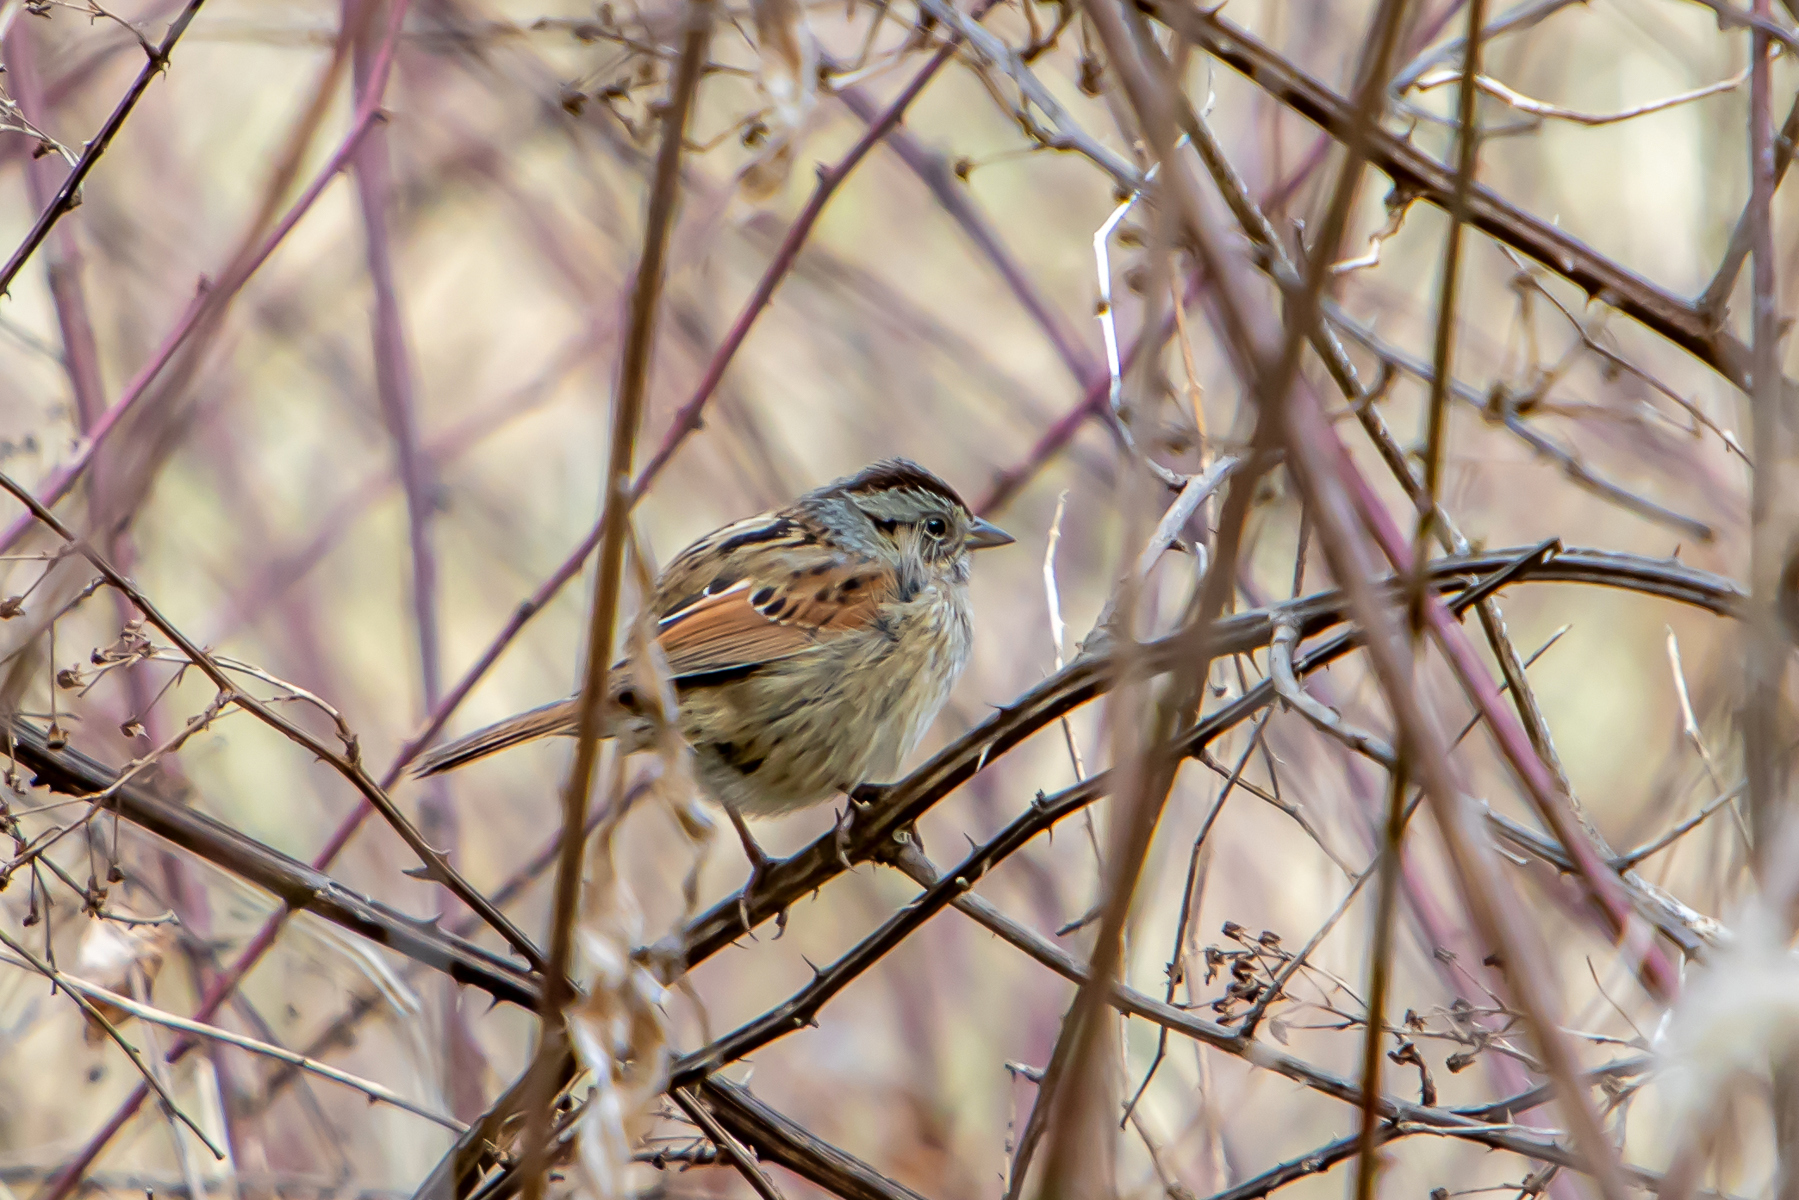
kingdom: Animalia
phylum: Chordata
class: Aves
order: Passeriformes
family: Passerellidae
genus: Melospiza
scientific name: Melospiza georgiana
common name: Swamp sparrow
